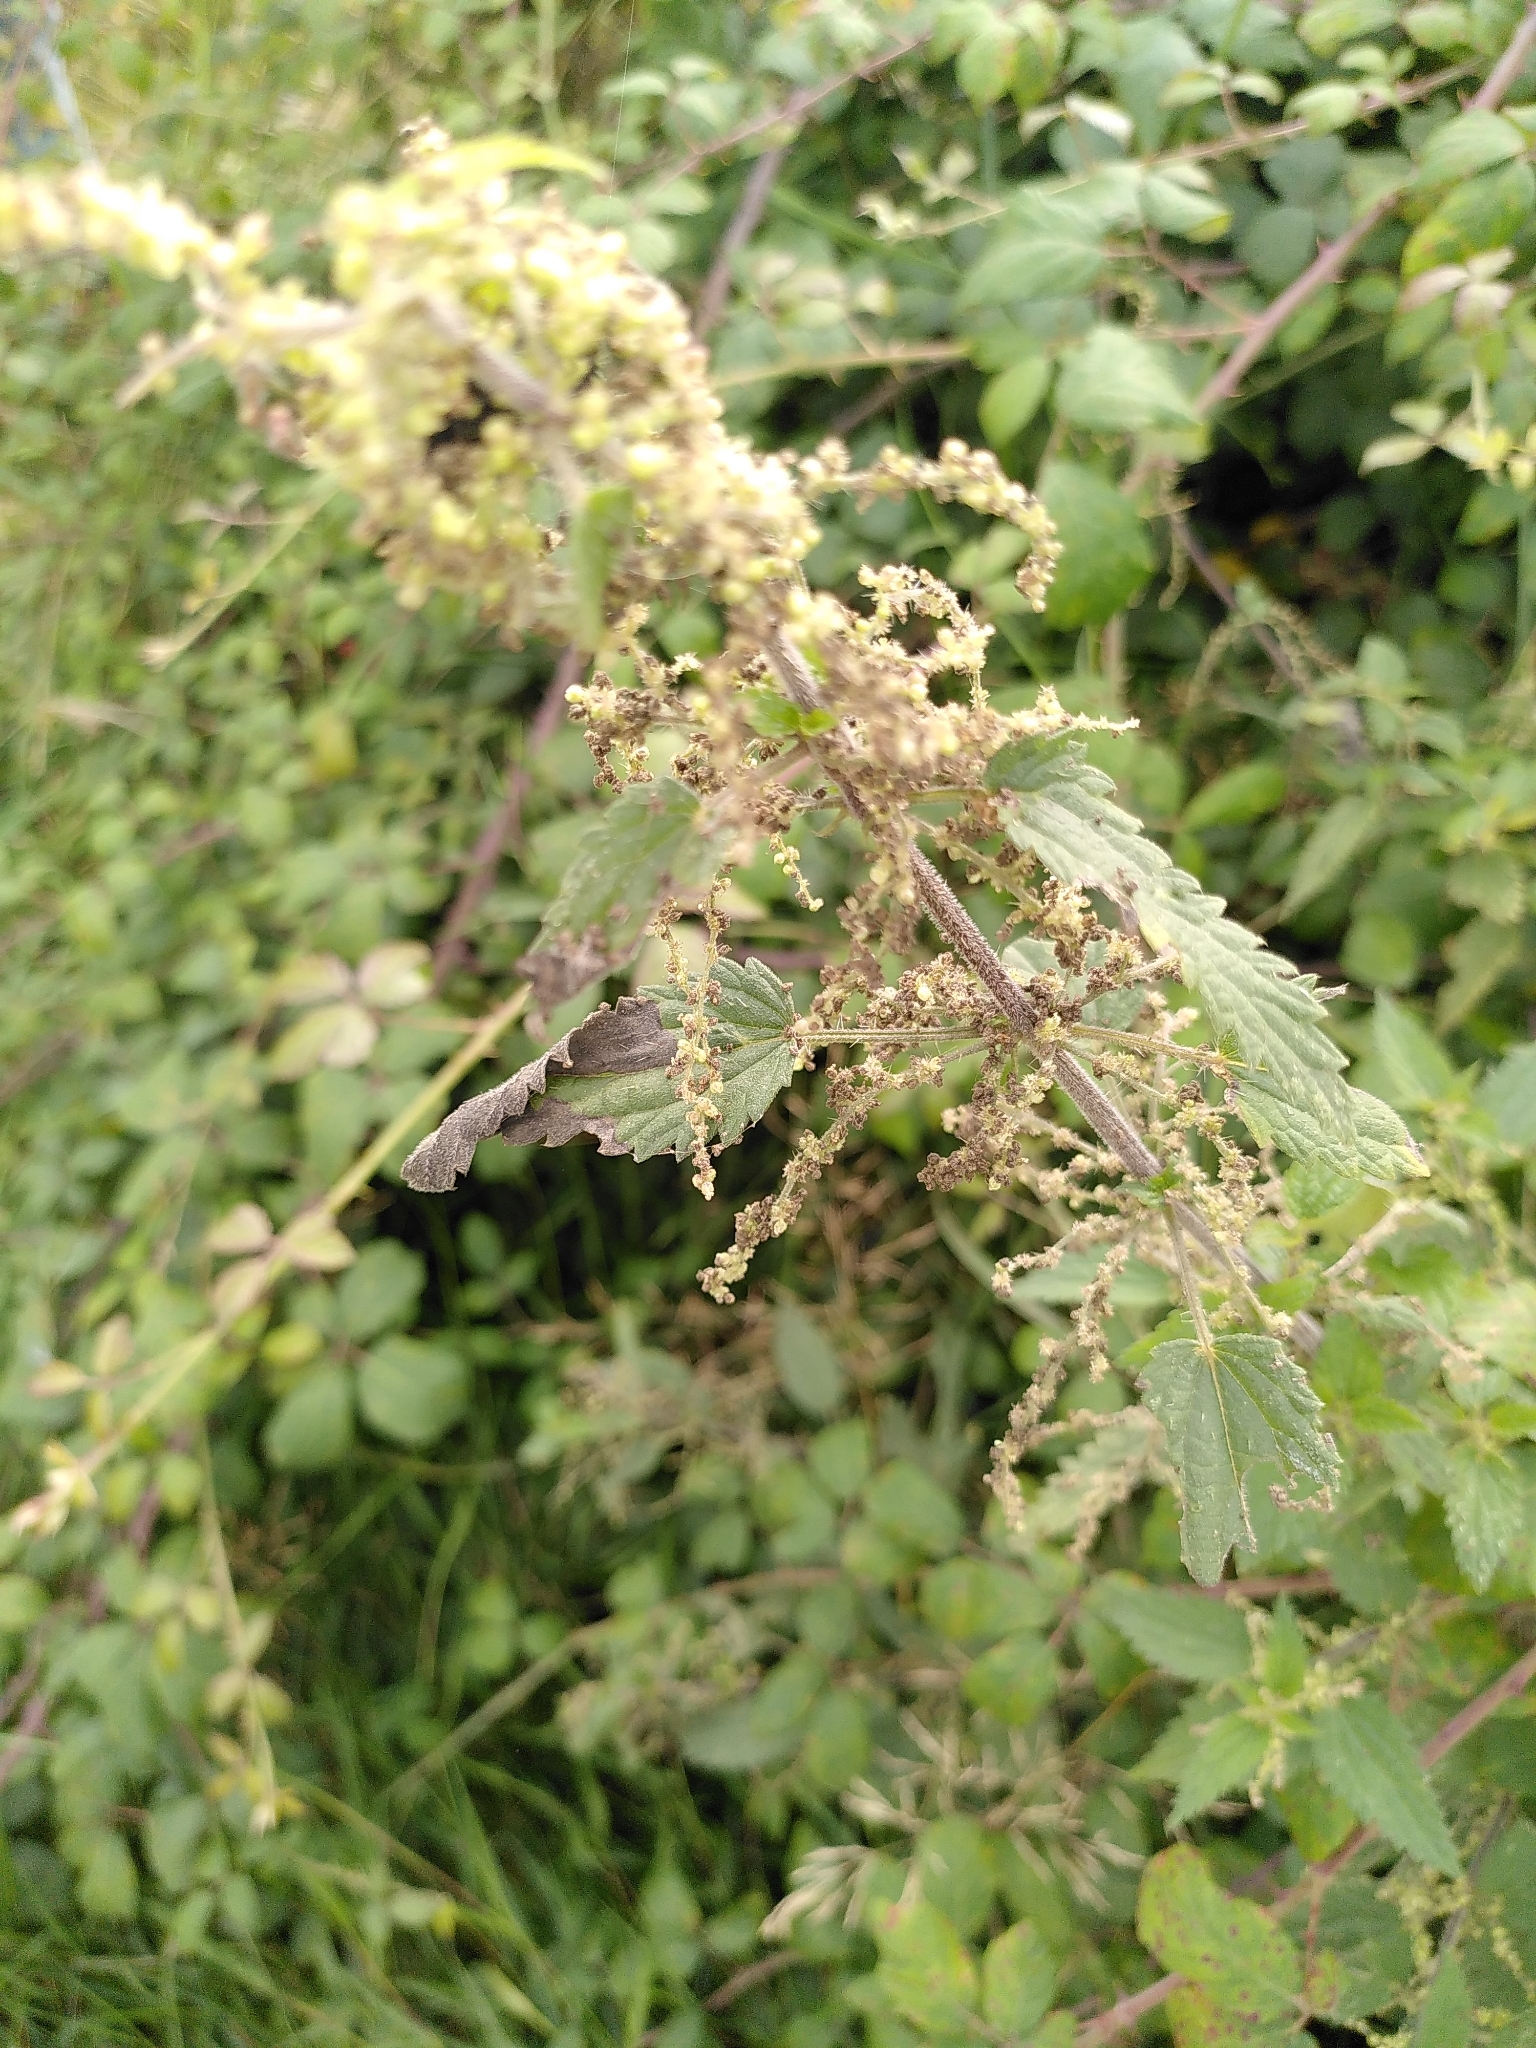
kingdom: Plantae
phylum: Tracheophyta
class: Magnoliopsida
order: Rosales
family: Urticaceae
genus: Urtica
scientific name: Urtica dioica
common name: Common nettle
